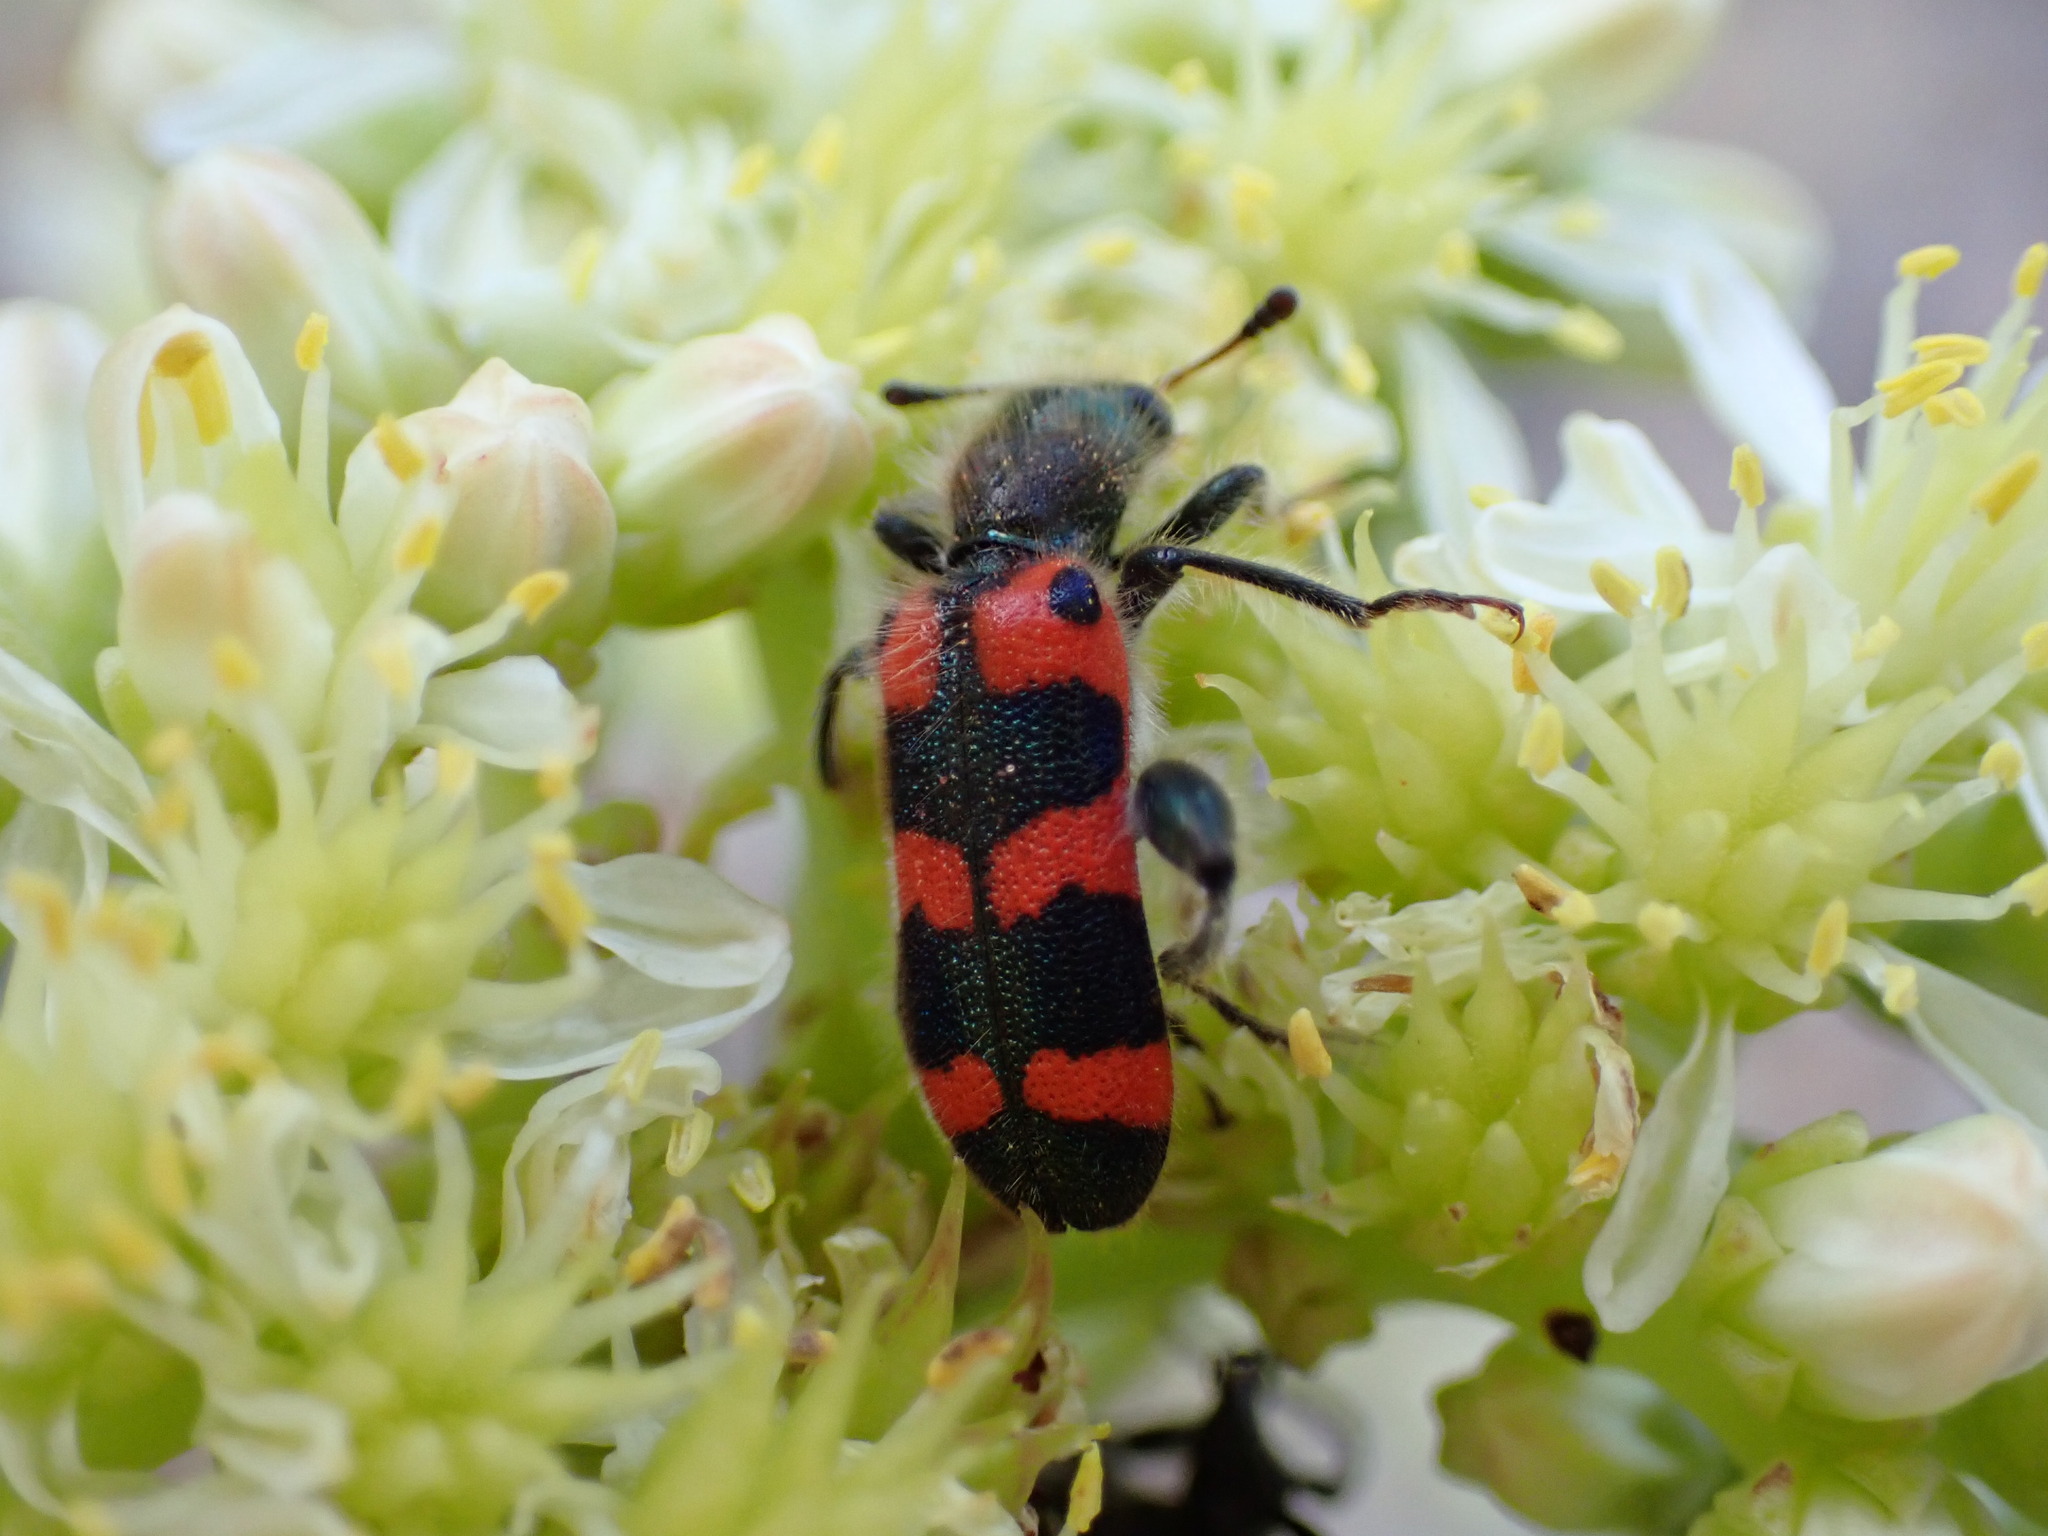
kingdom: Animalia
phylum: Arthropoda
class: Insecta
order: Coleoptera
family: Cleridae
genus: Trichodes
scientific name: Trichodes leucopsideus
